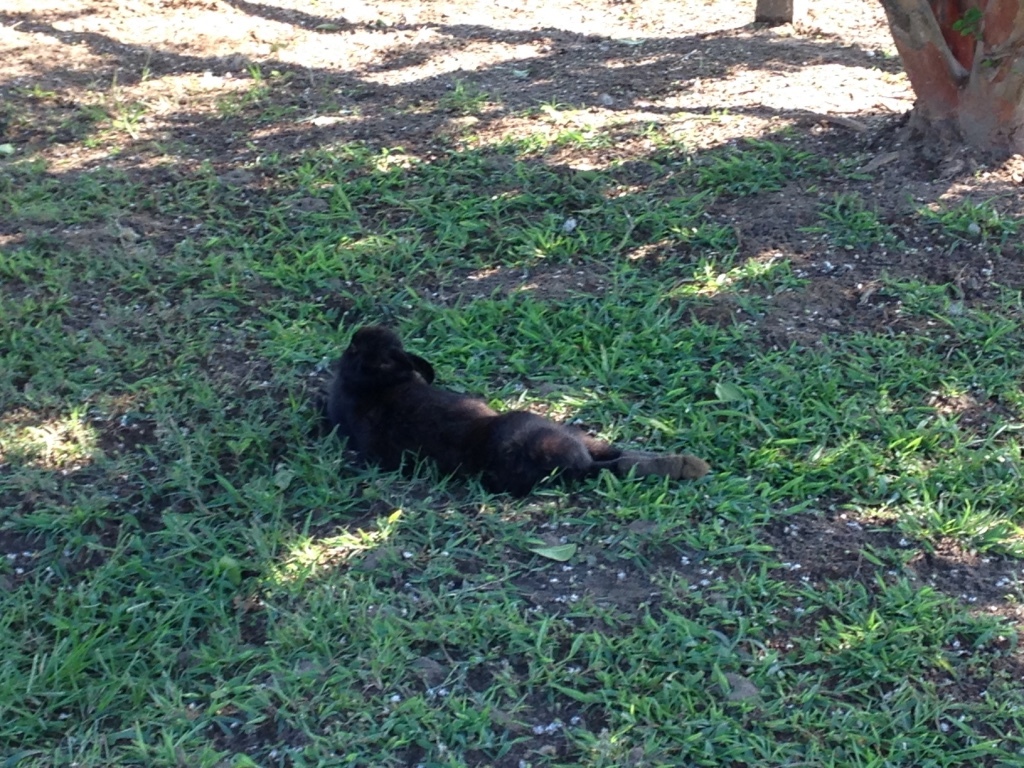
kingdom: Animalia
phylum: Chordata
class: Mammalia
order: Lagomorpha
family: Leporidae
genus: Oryctolagus
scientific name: Oryctolagus cuniculus
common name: European rabbit
